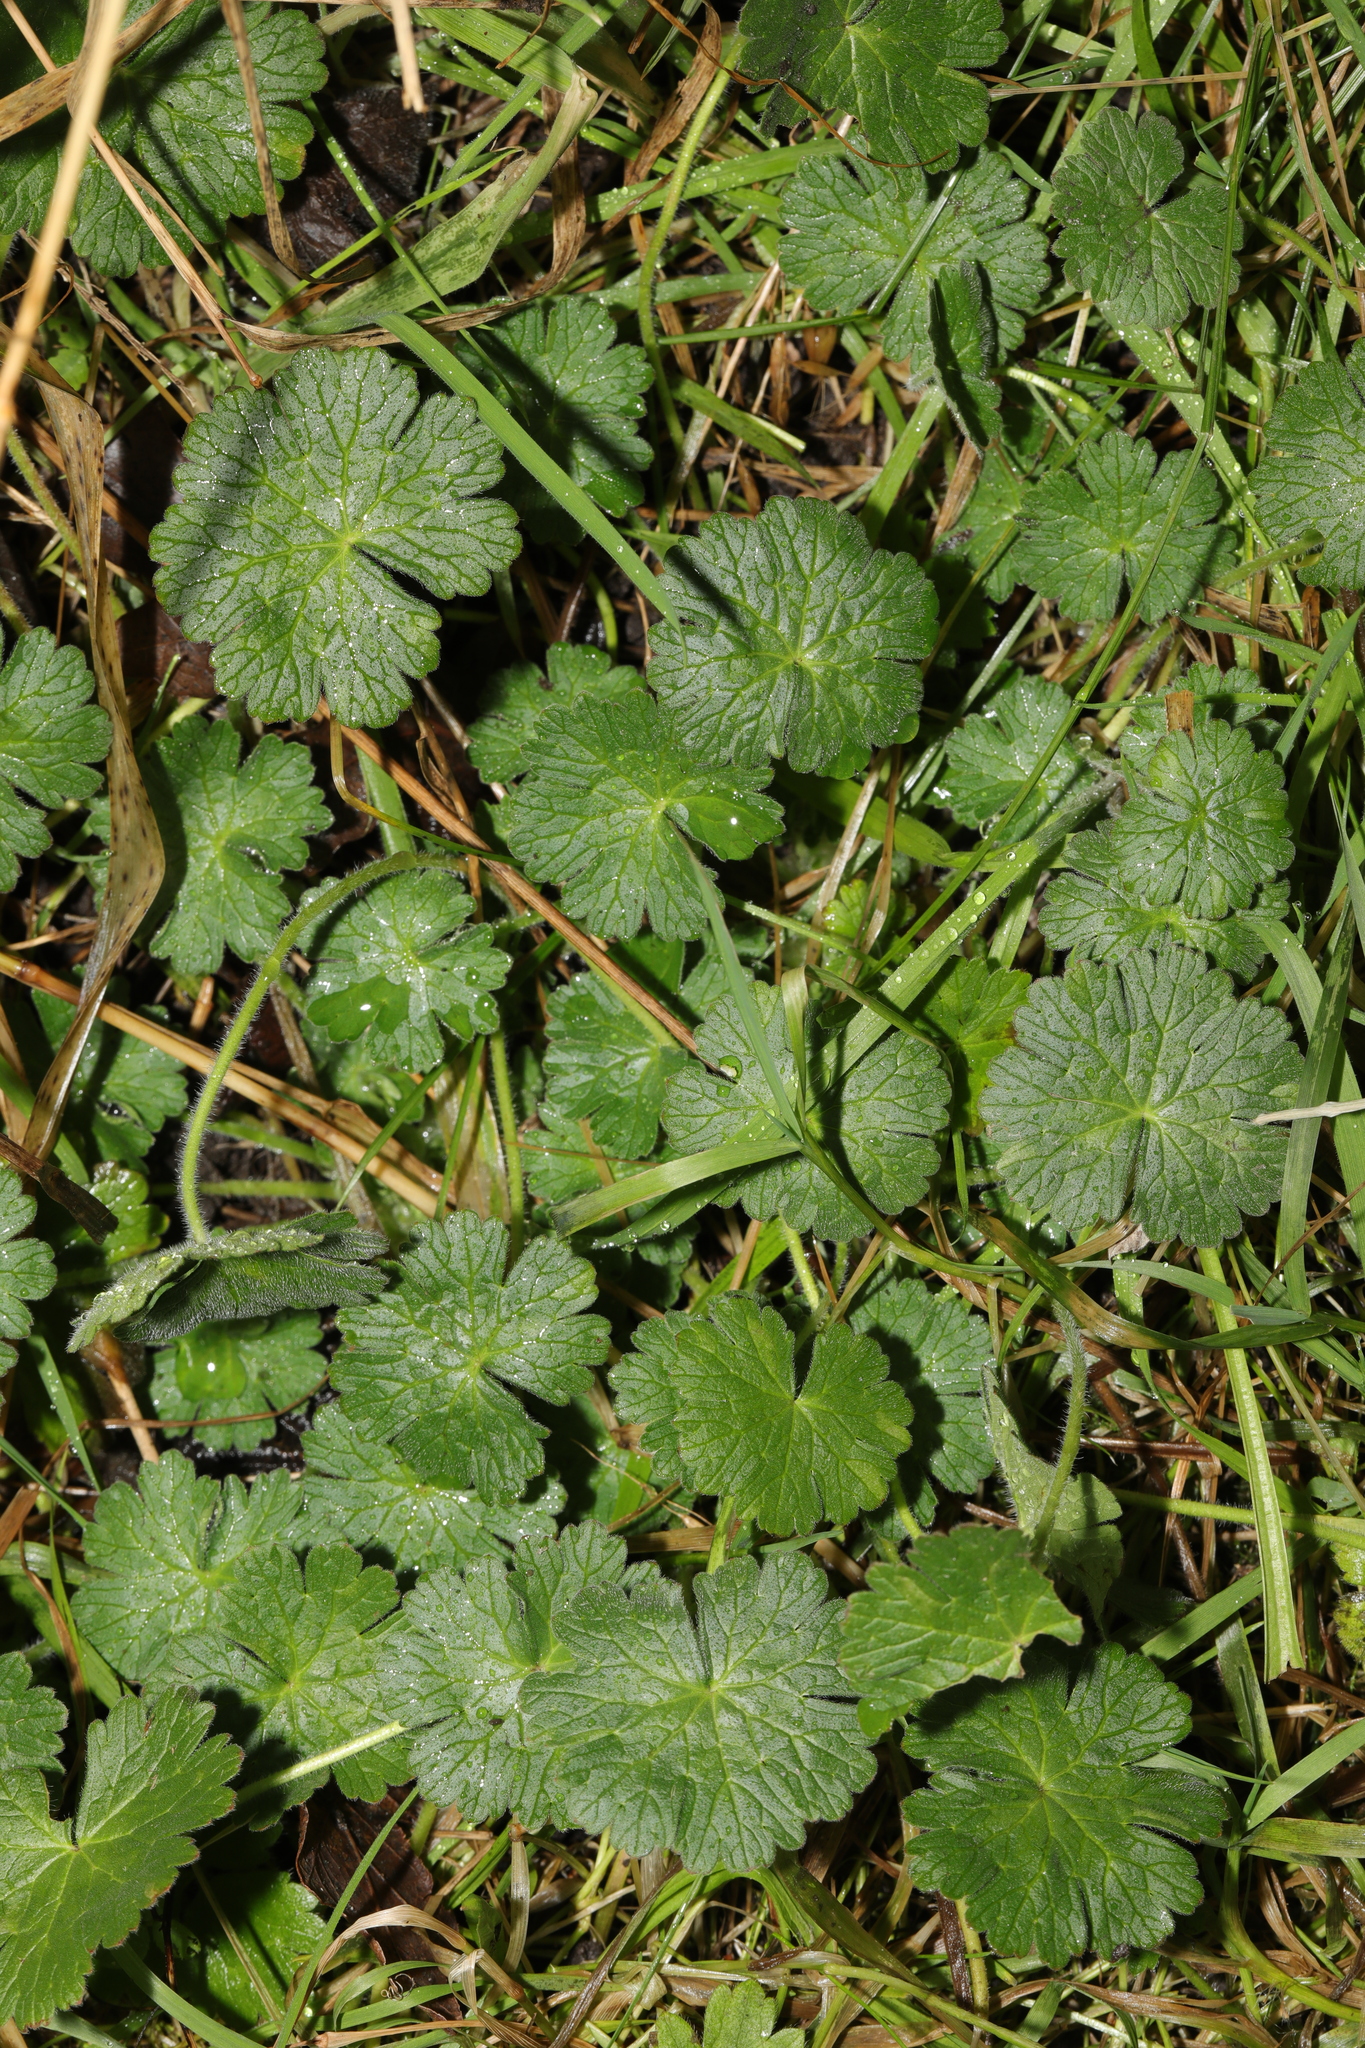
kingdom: Plantae
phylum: Tracheophyta
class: Magnoliopsida
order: Geraniales
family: Geraniaceae
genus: Geranium
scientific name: Geranium molle
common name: Dove's-foot crane's-bill
